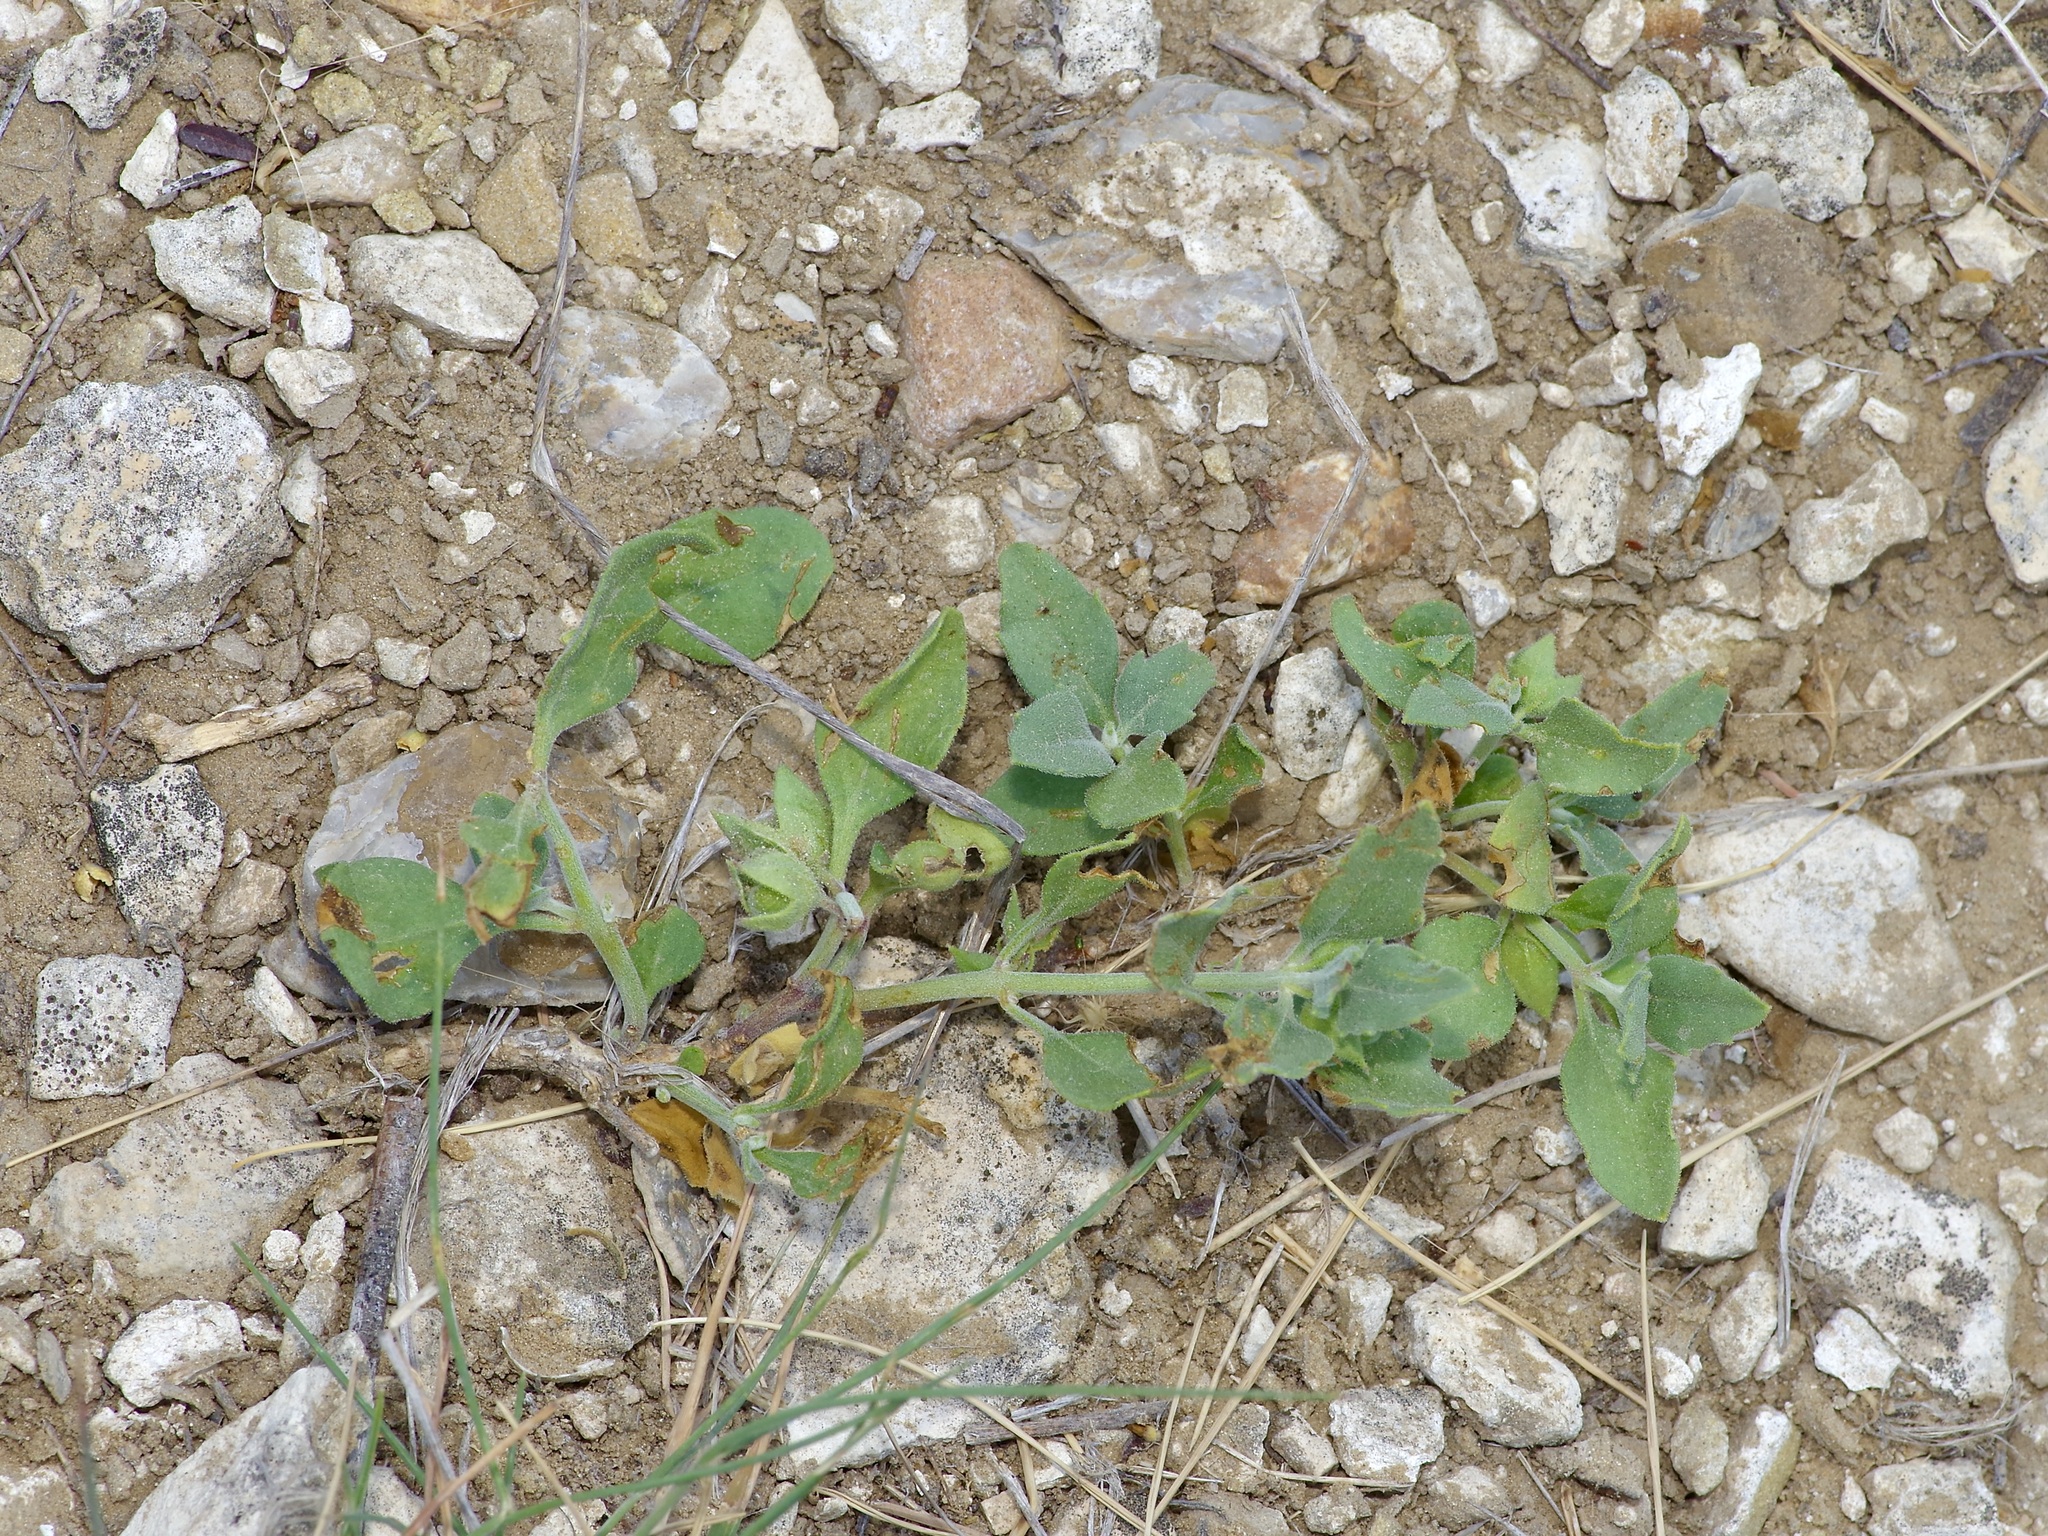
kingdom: Plantae
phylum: Tracheophyta
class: Magnoliopsida
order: Lamiales
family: Lamiaceae
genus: Tetraclea
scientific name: Tetraclea coulteri
